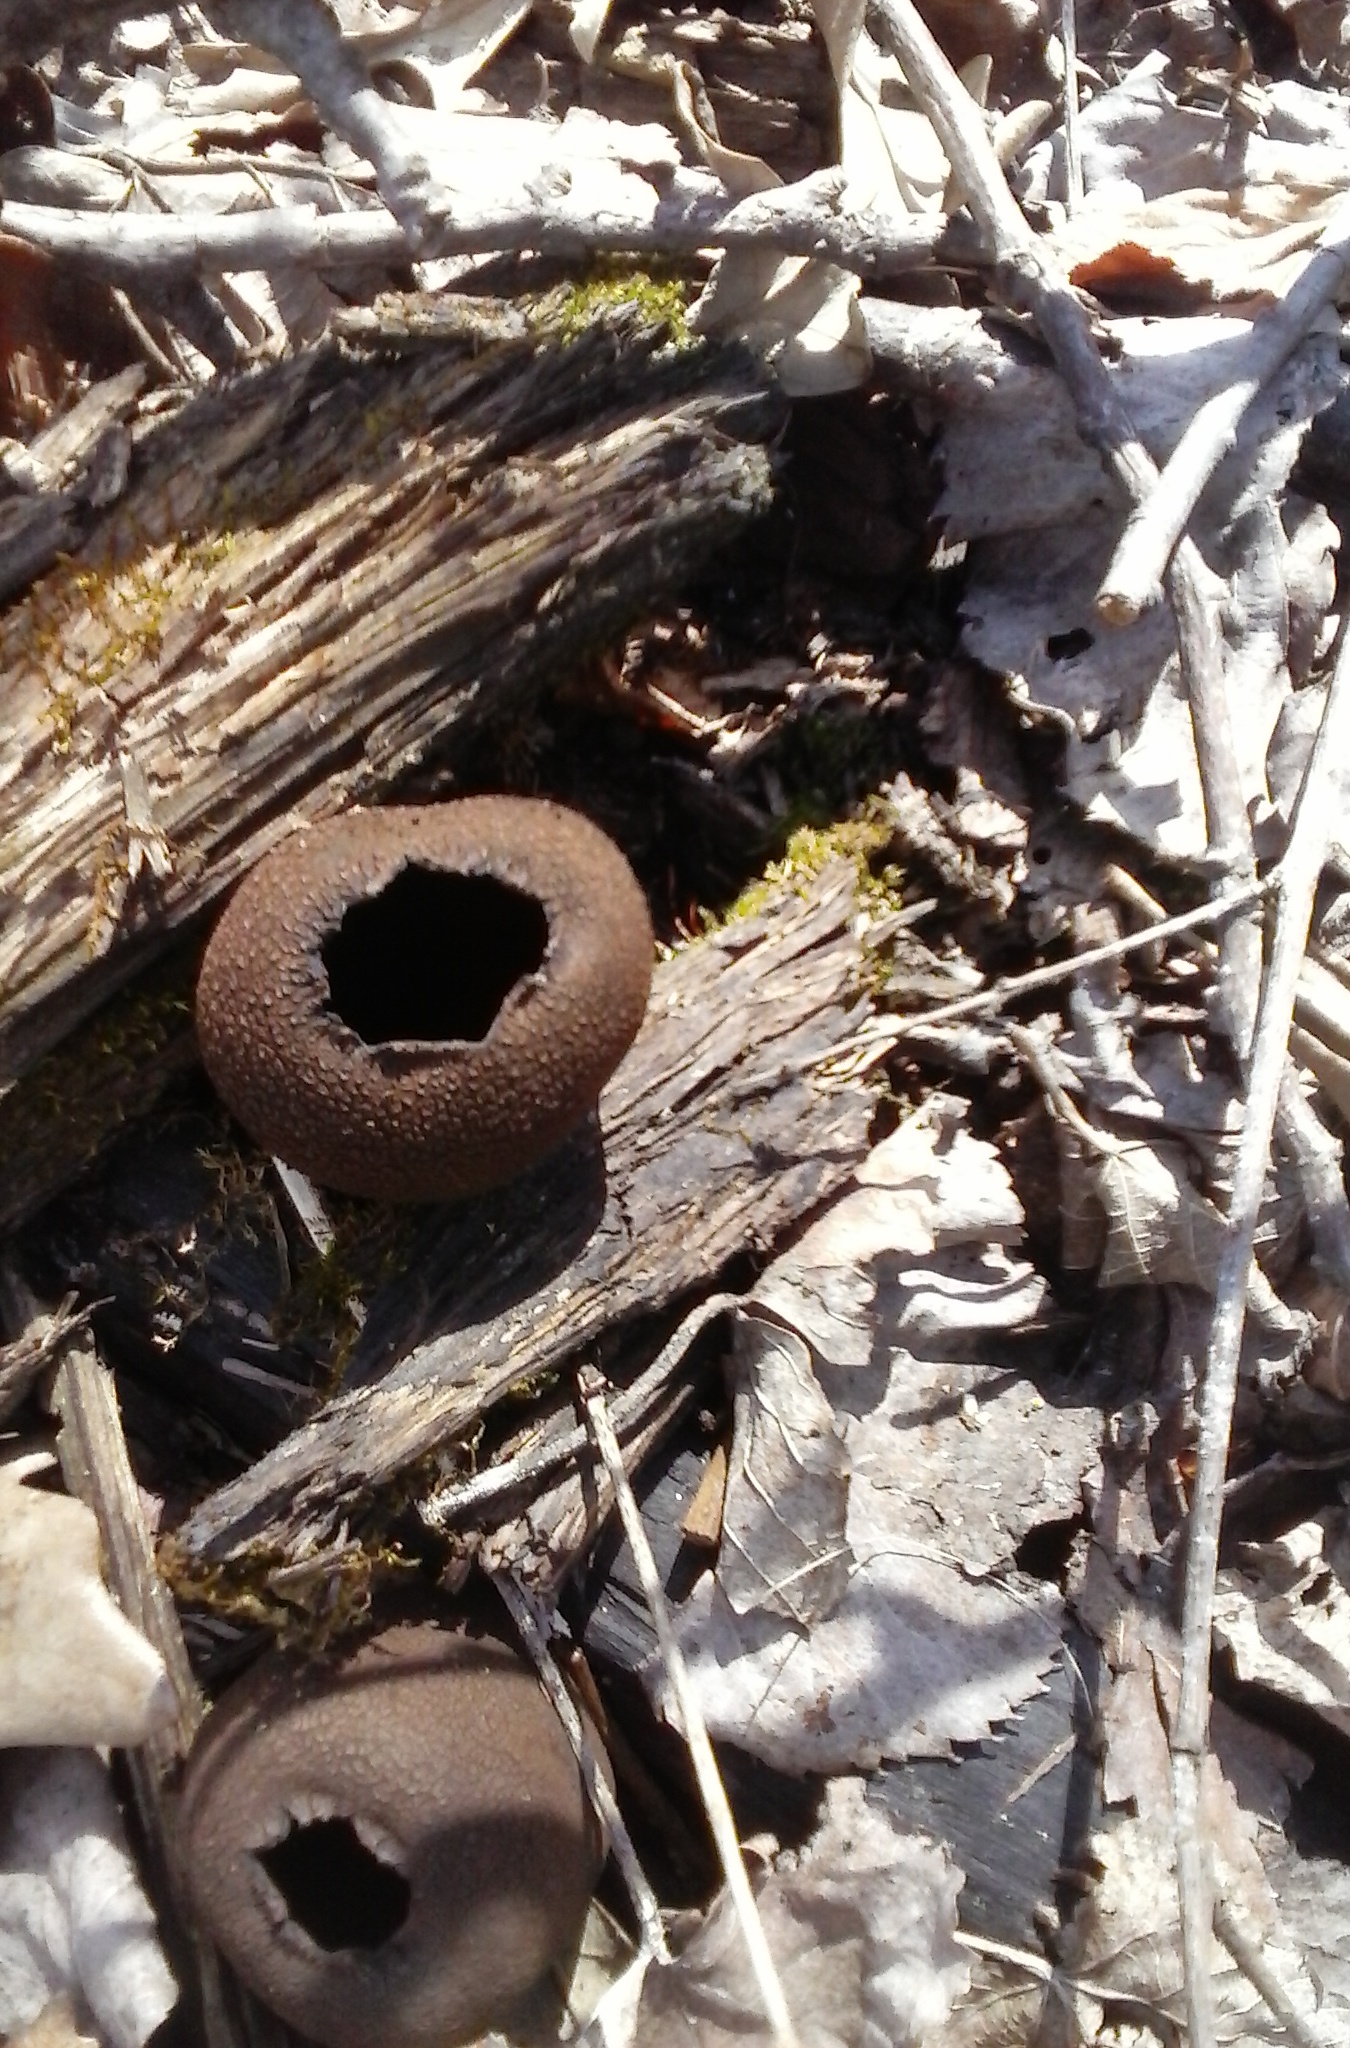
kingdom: Fungi
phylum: Ascomycota
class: Pezizomycetes
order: Pezizales
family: Sarcosomataceae
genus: Urnula
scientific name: Urnula craterium
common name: Devil's urn
